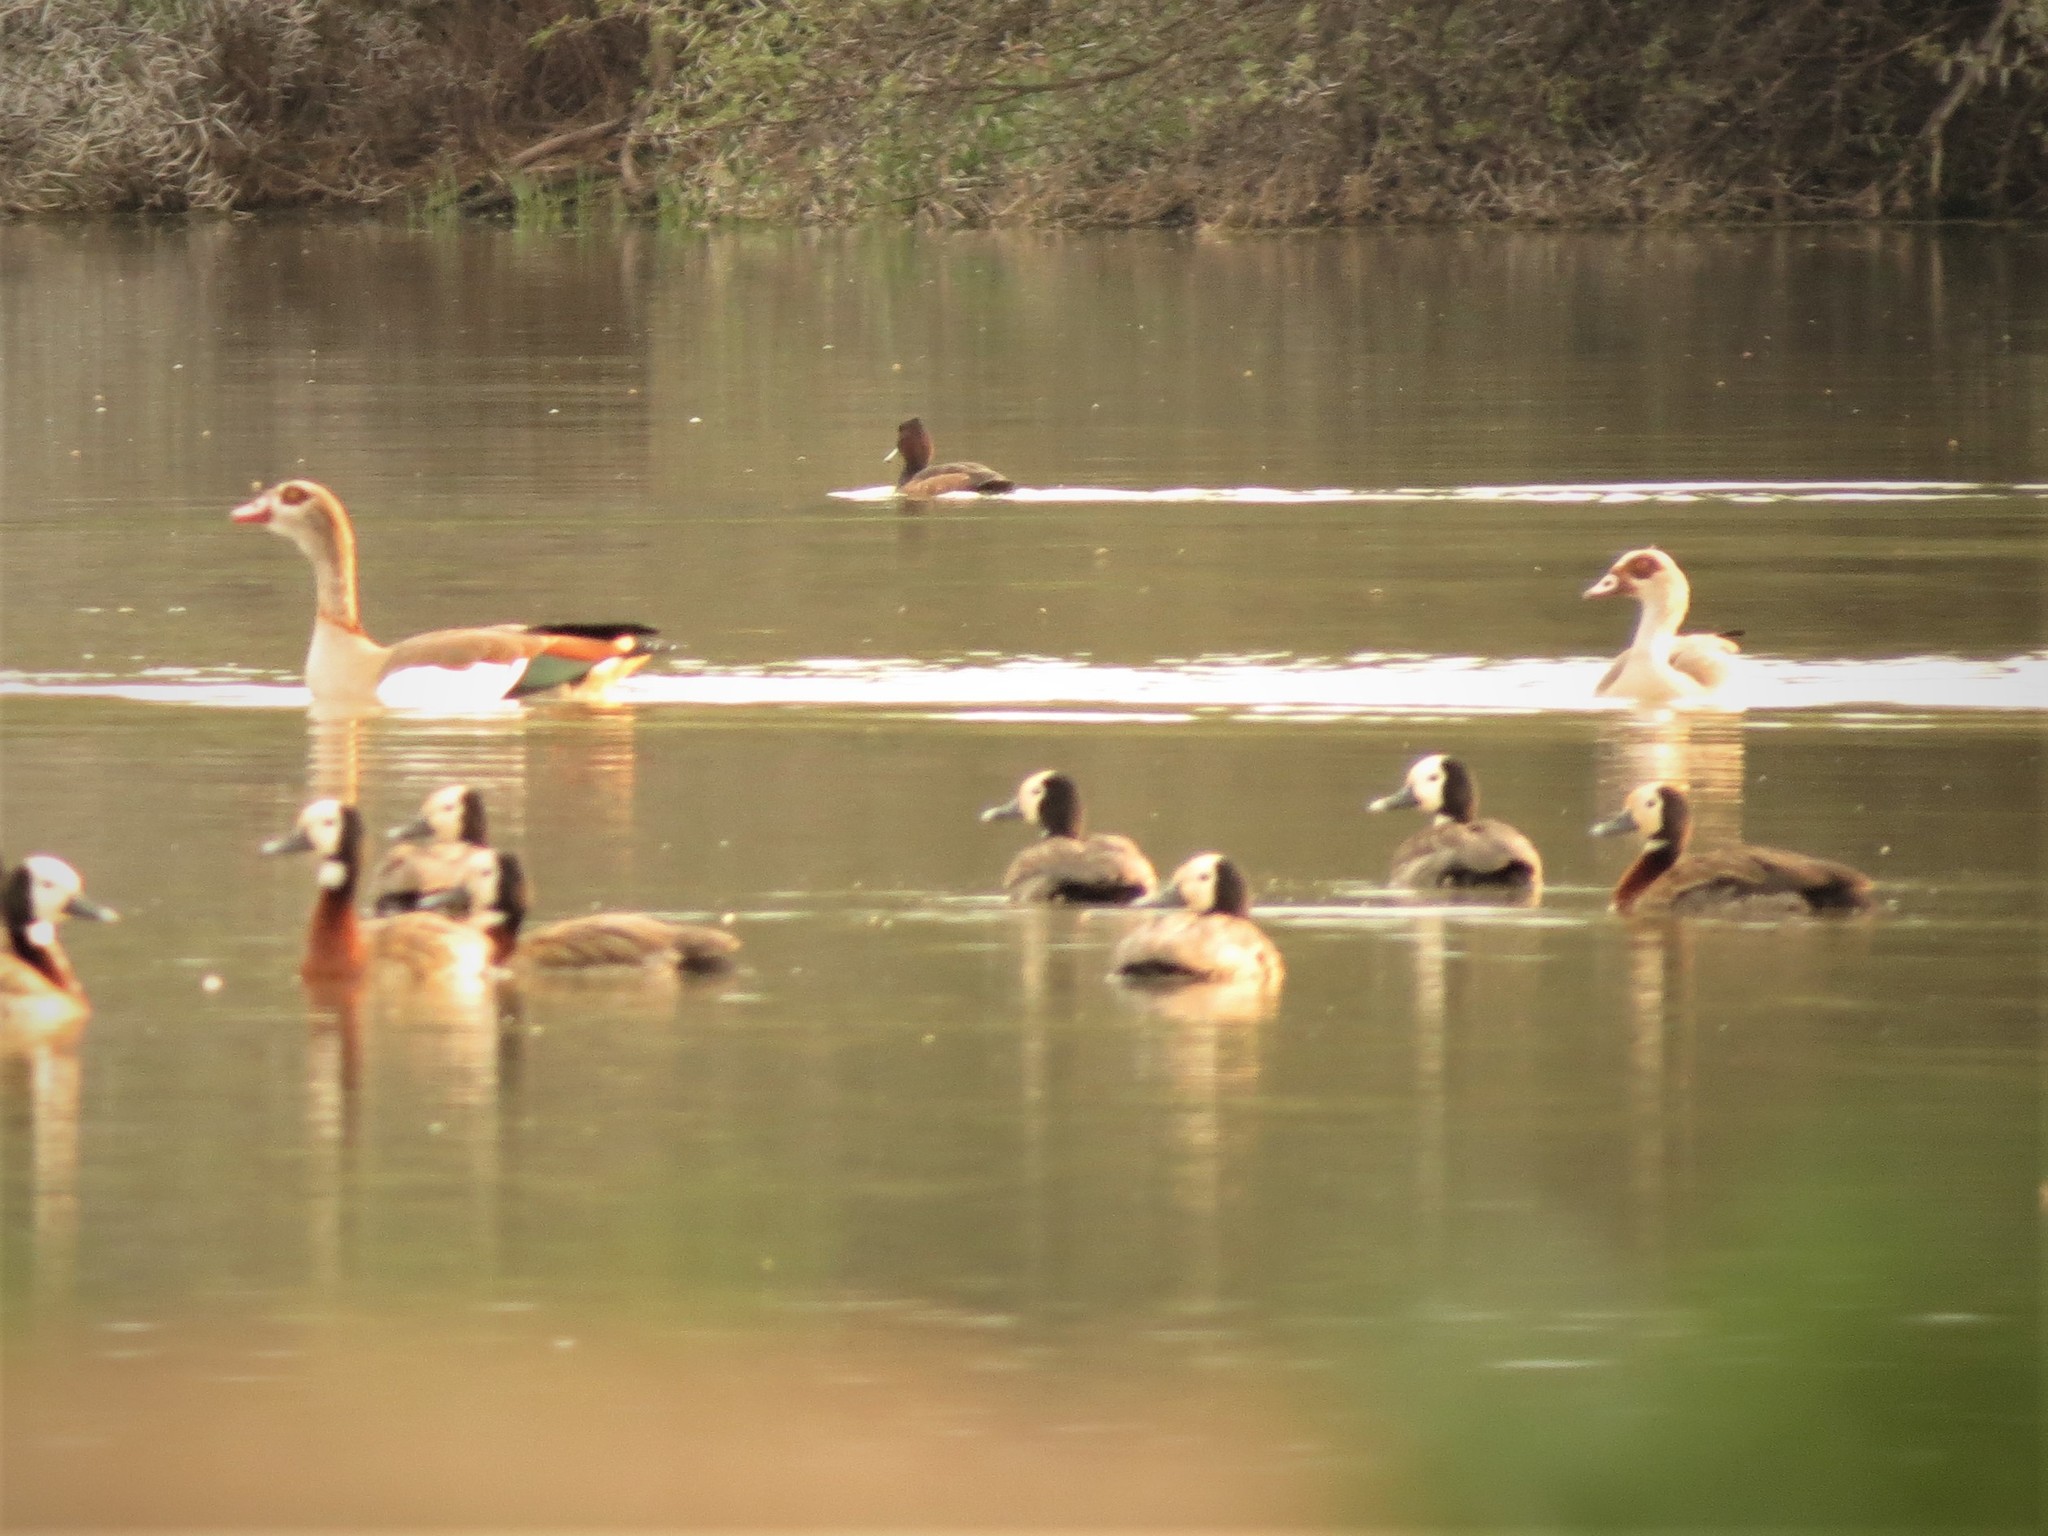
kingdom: Animalia
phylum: Chordata
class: Aves
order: Anseriformes
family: Anatidae
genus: Dendrocygna
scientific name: Dendrocygna viduata
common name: White-faced whistling duck
